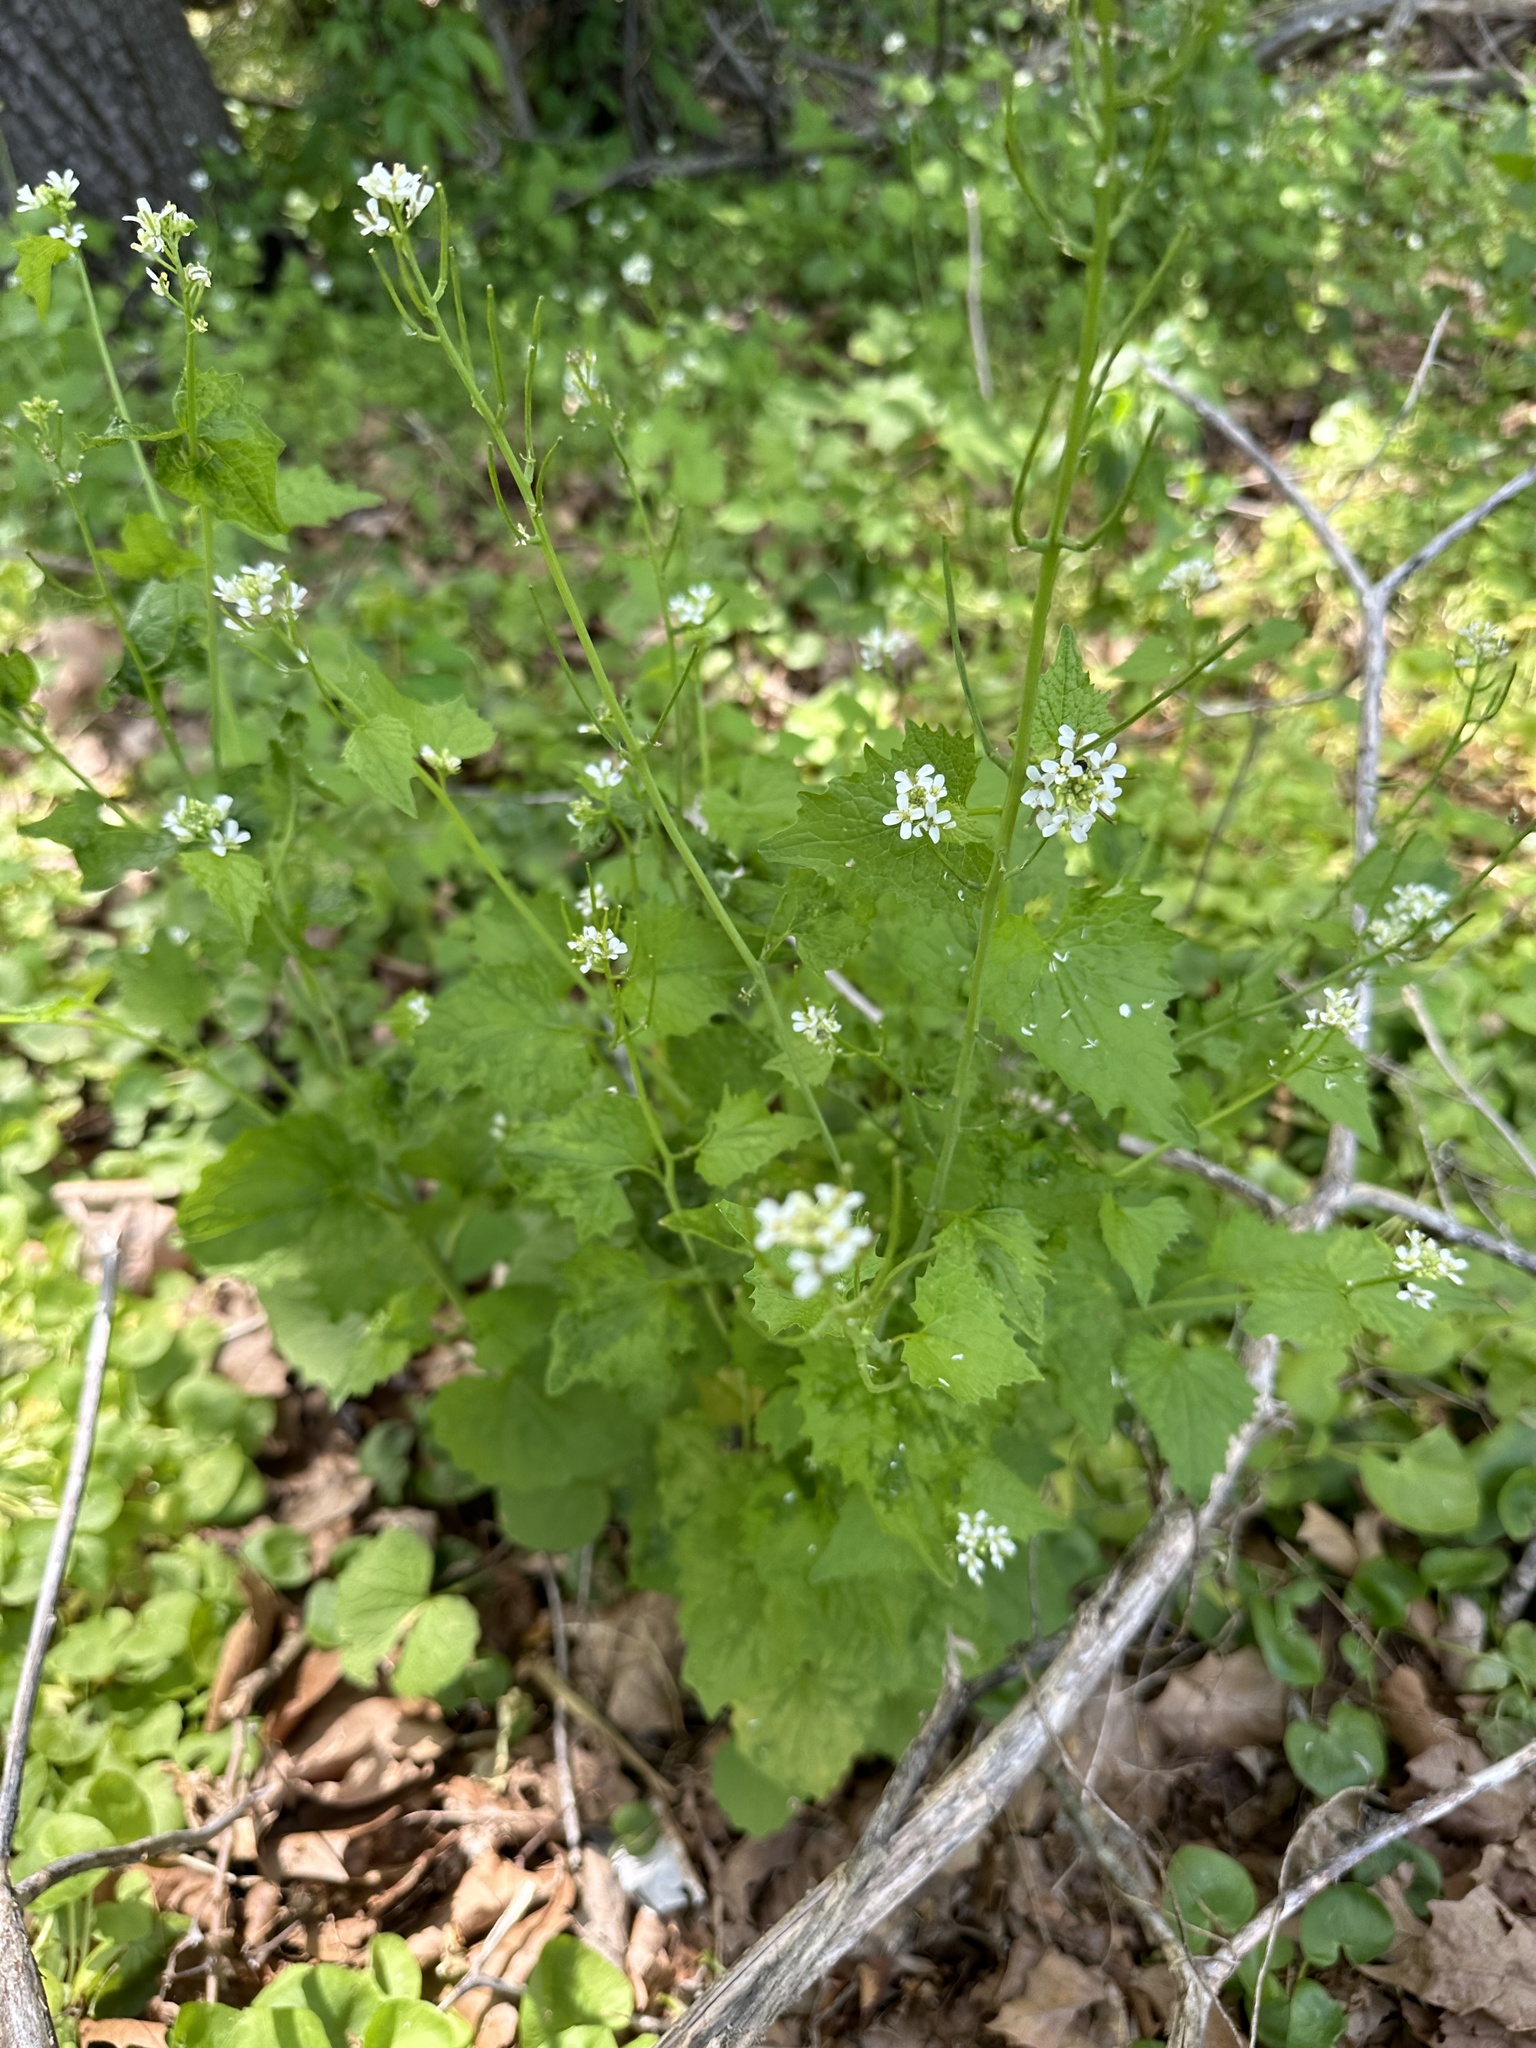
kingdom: Plantae
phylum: Tracheophyta
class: Magnoliopsida
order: Brassicales
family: Brassicaceae
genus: Alliaria
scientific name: Alliaria petiolata
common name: Garlic mustard
